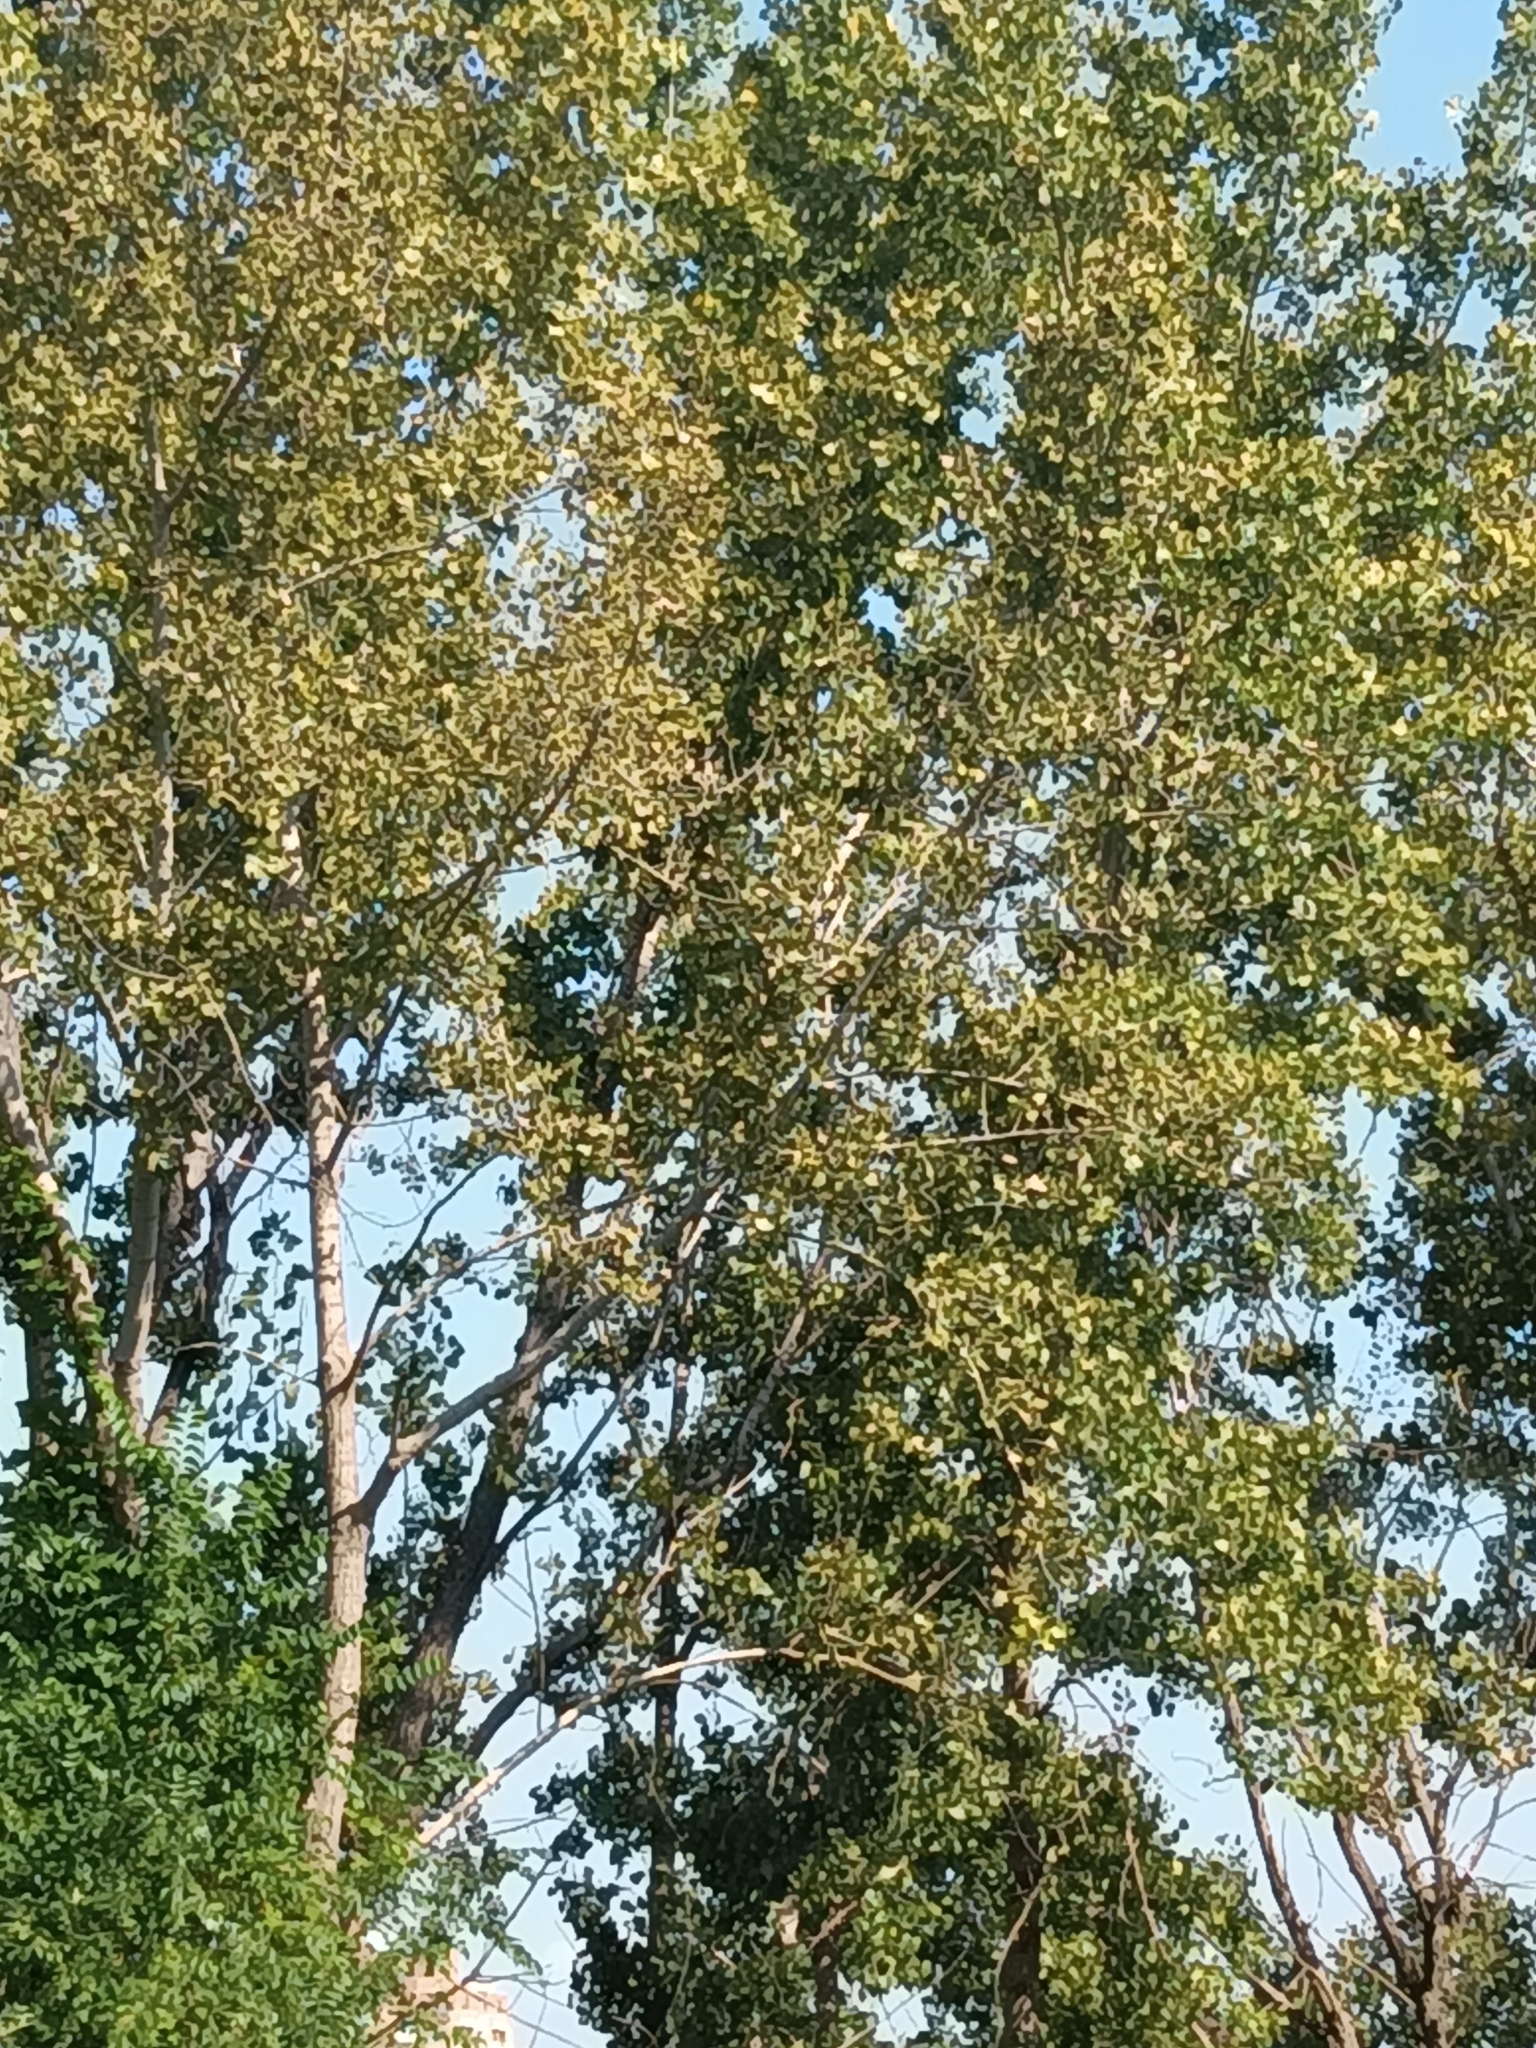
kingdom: Plantae
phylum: Tracheophyta
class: Magnoliopsida
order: Malpighiales
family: Salicaceae
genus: Populus
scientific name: Populus deltoides
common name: Eastern cottonwood
